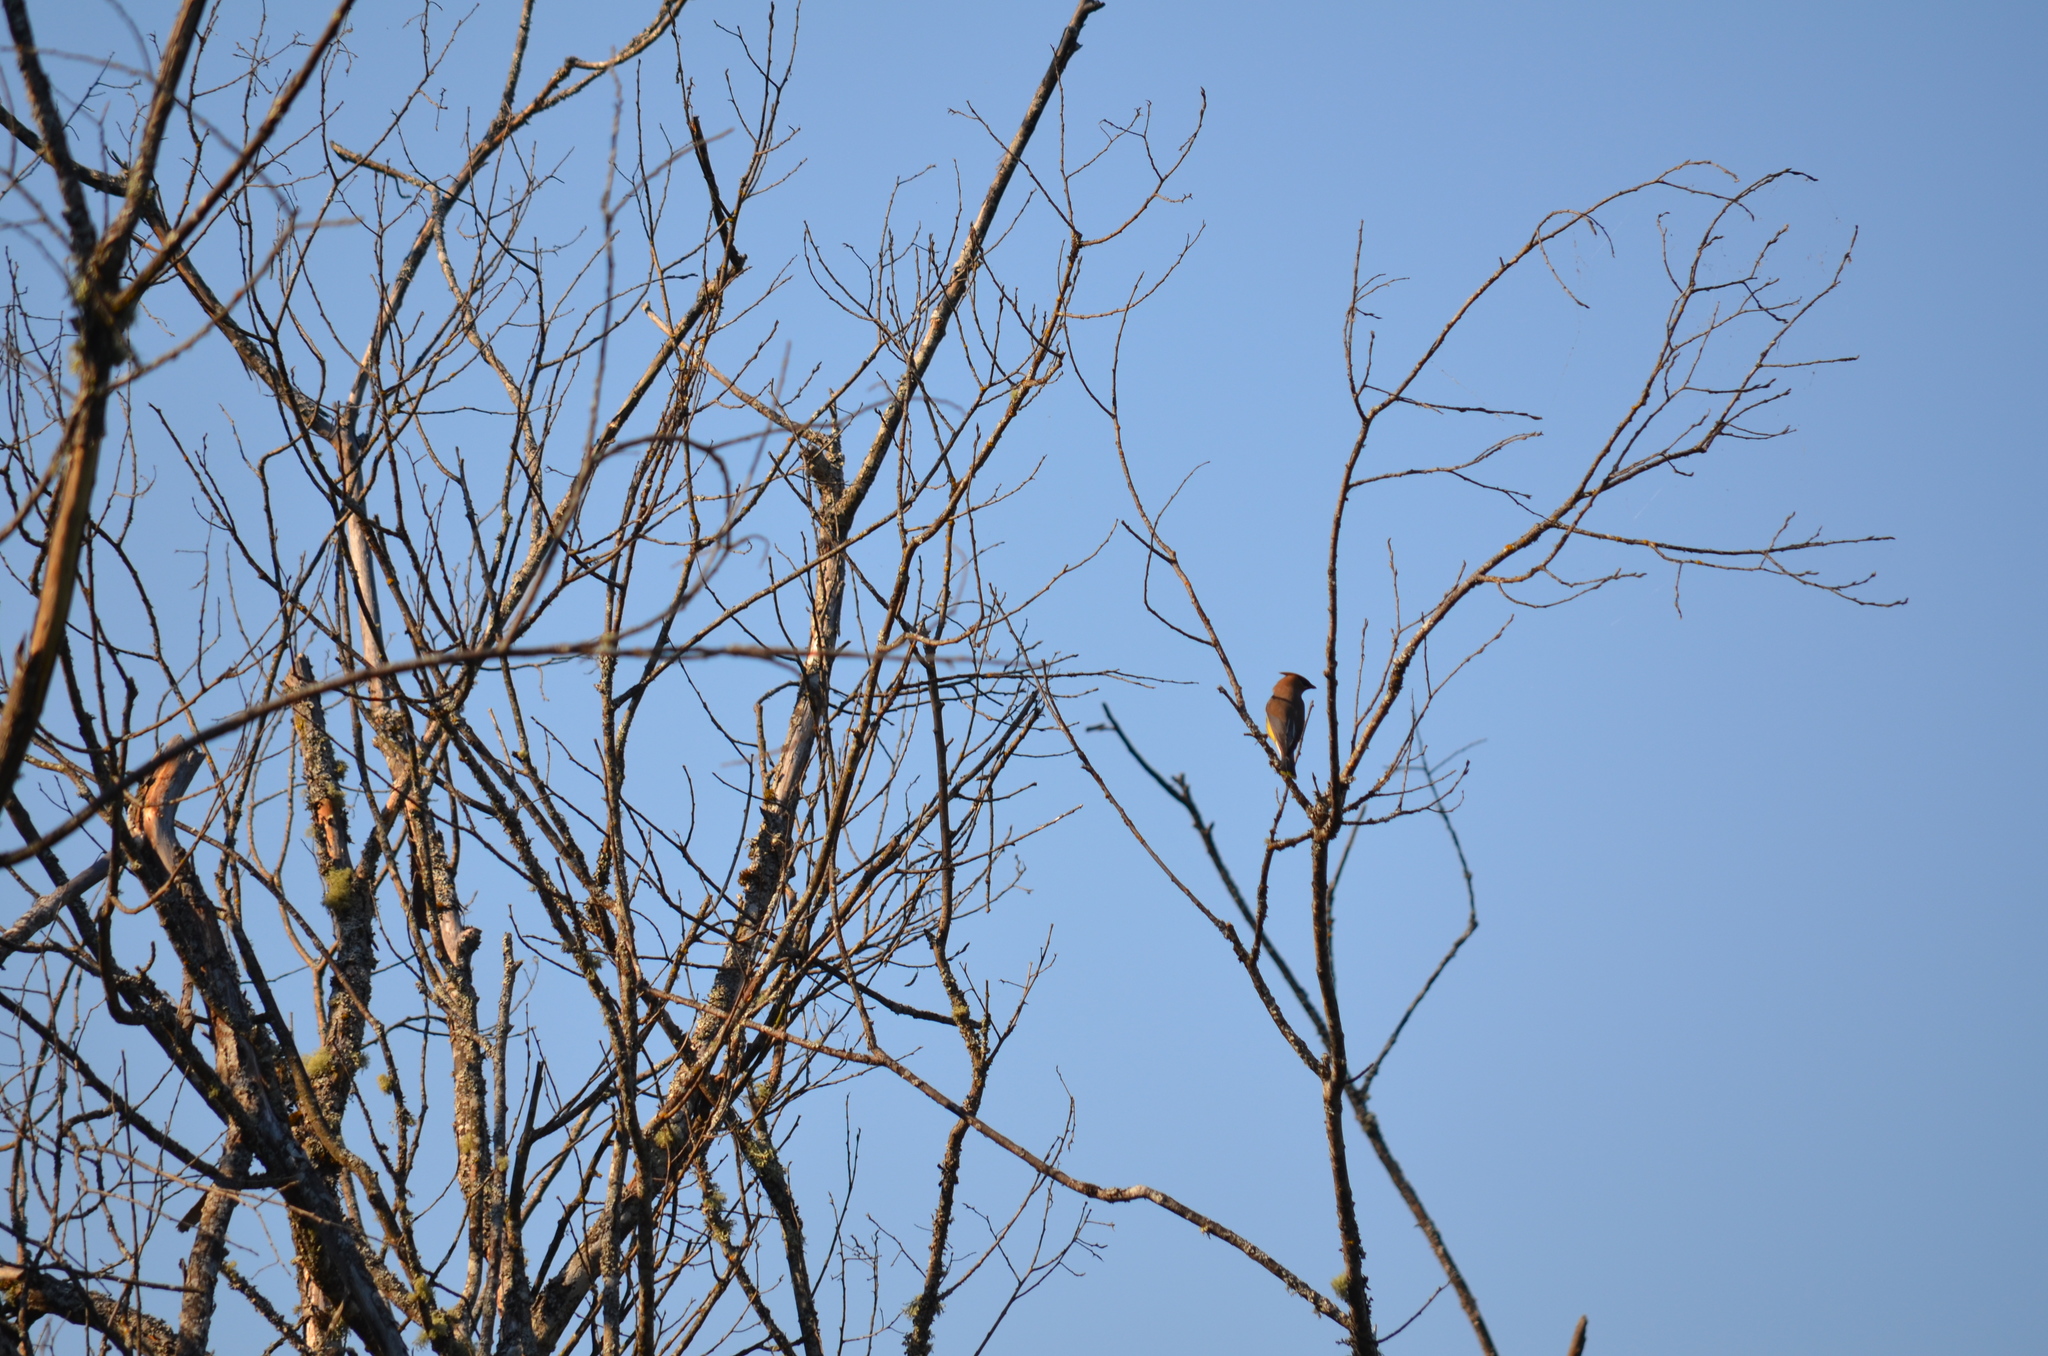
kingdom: Animalia
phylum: Chordata
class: Aves
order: Passeriformes
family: Bombycillidae
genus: Bombycilla
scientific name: Bombycilla cedrorum
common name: Cedar waxwing
